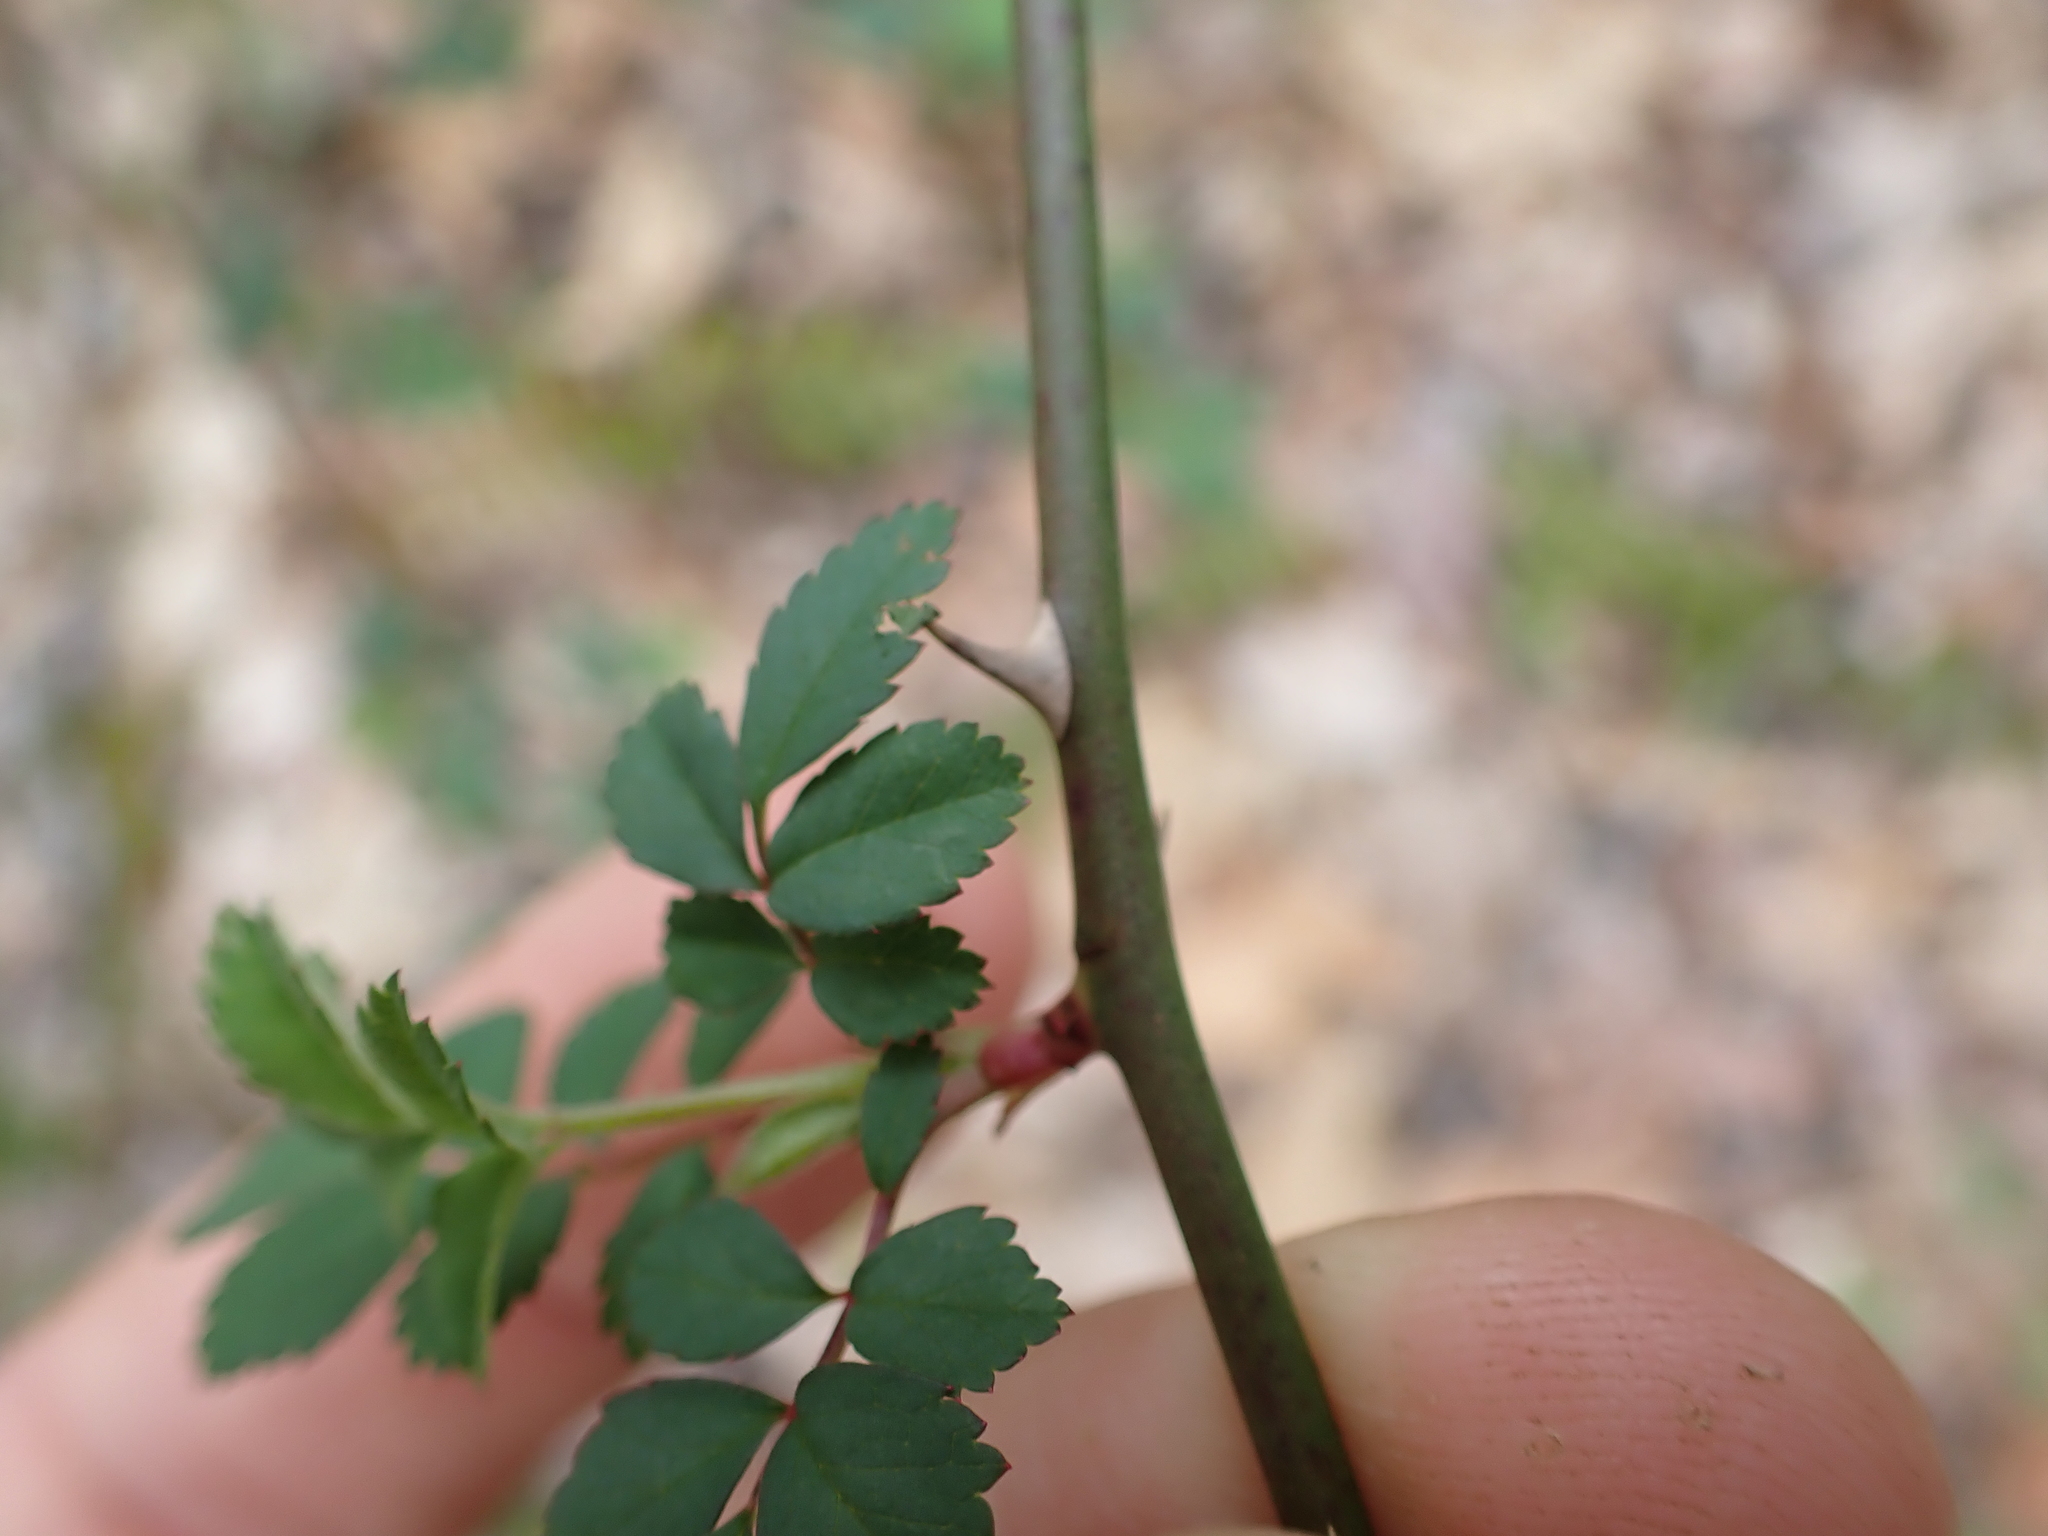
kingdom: Plantae
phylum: Tracheophyta
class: Magnoliopsida
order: Rosales
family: Rosaceae
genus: Rosa
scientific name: Rosa multiflora
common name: Multiflora rose
